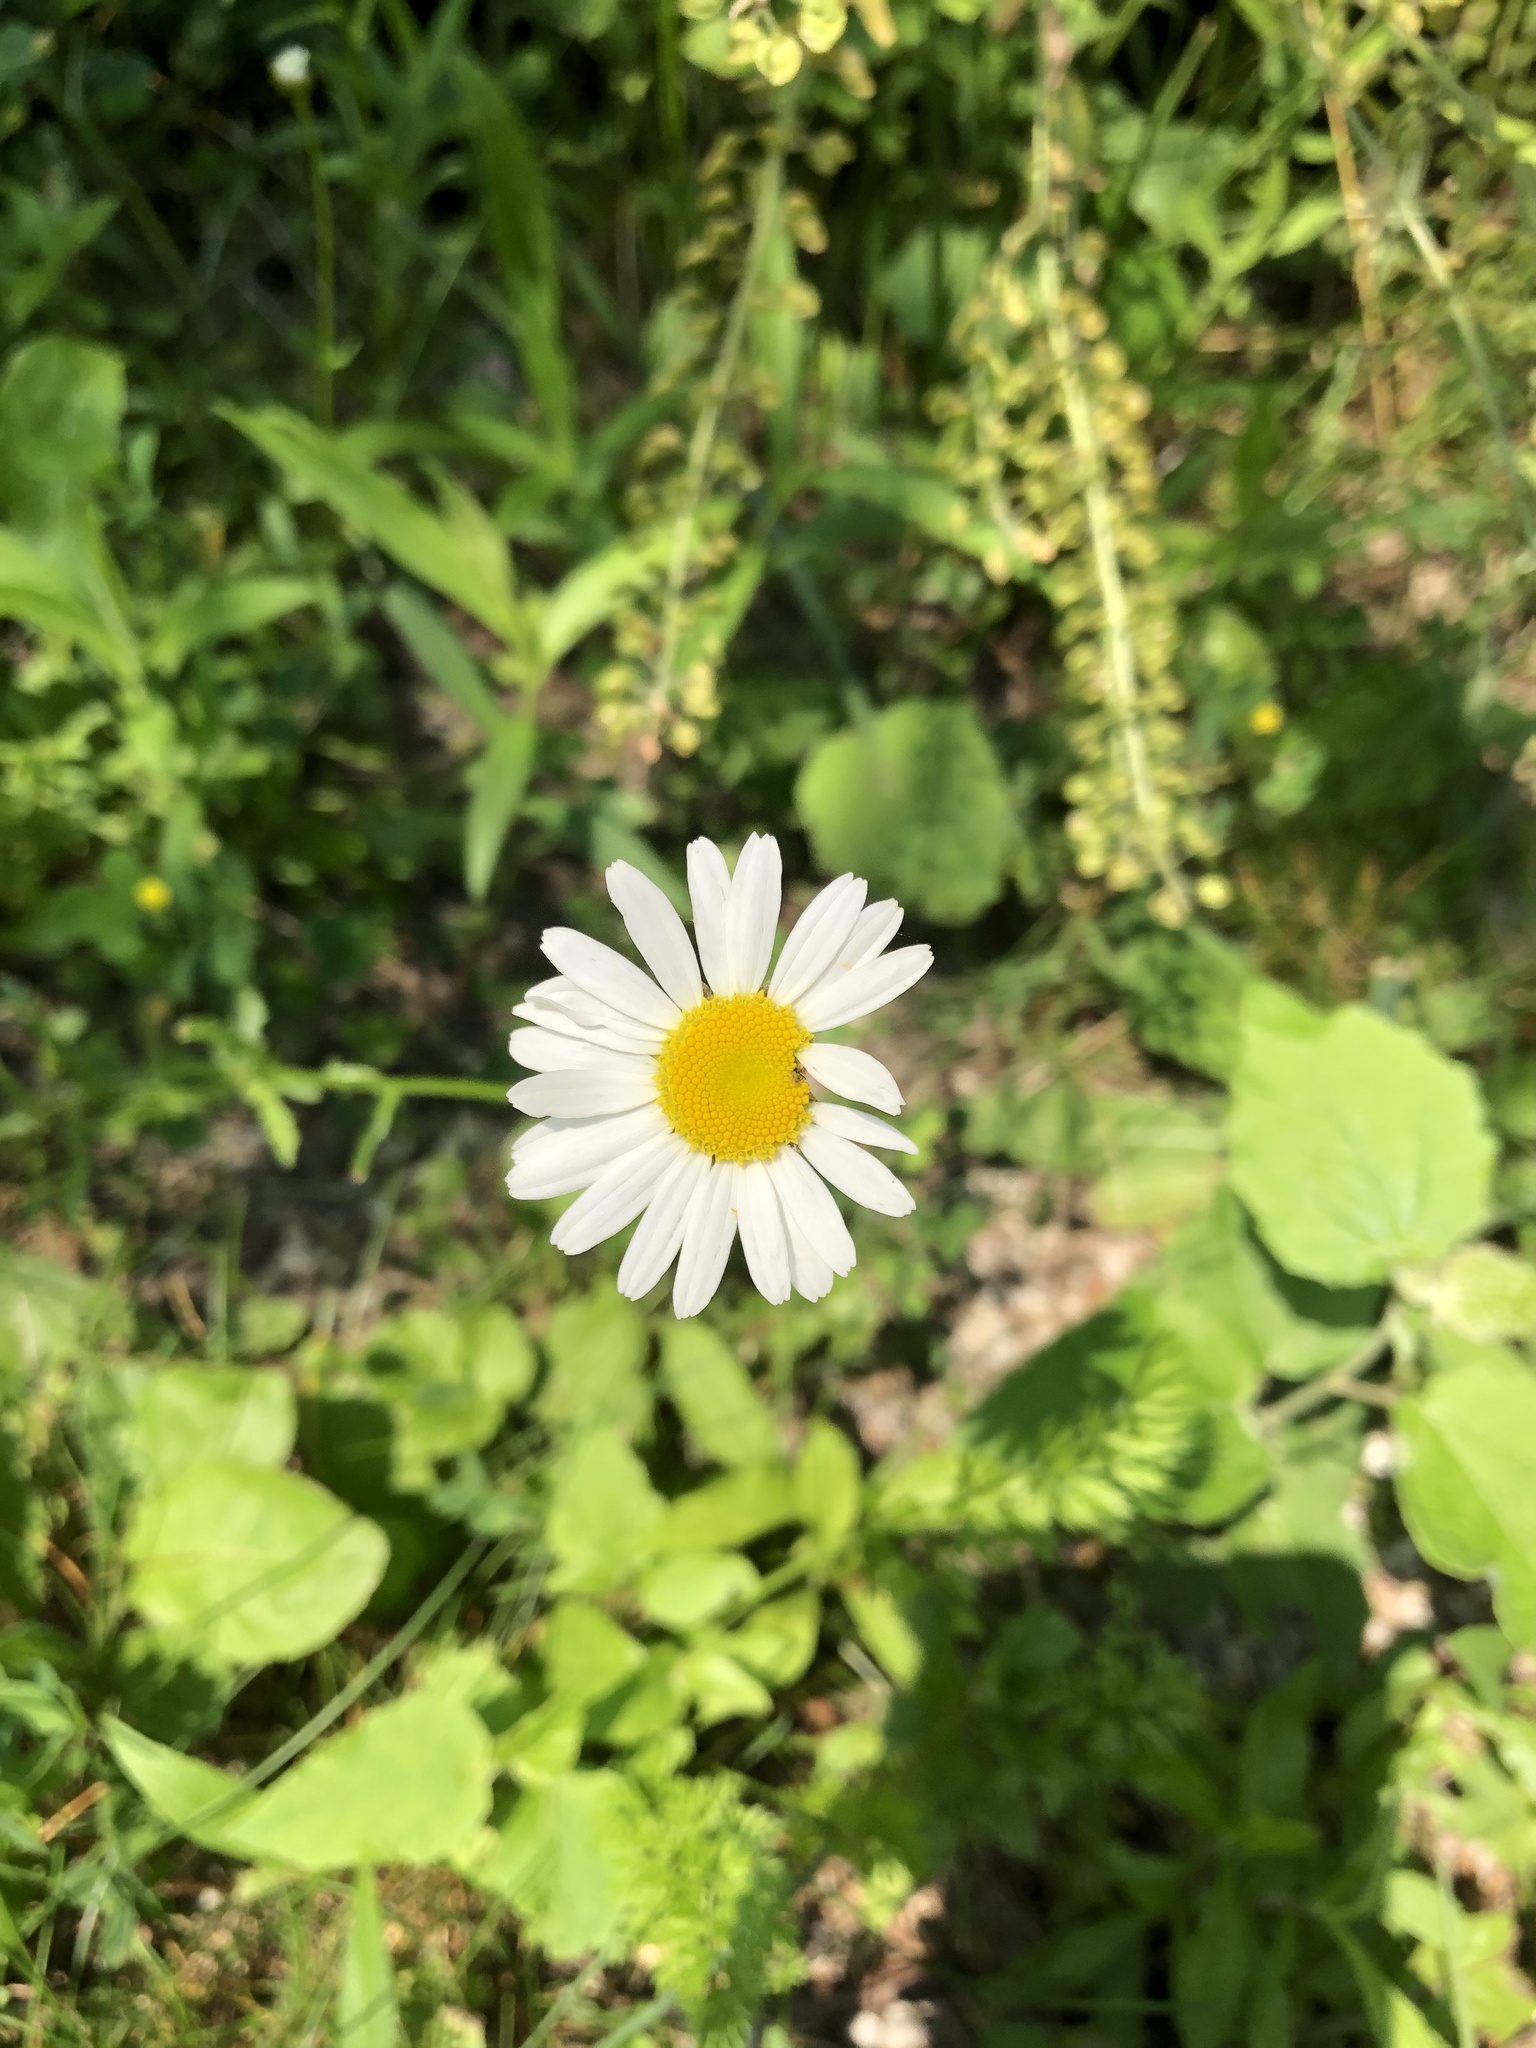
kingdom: Plantae
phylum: Tracheophyta
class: Magnoliopsida
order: Asterales
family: Asteraceae
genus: Leucanthemum
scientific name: Leucanthemum vulgare
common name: Oxeye daisy
